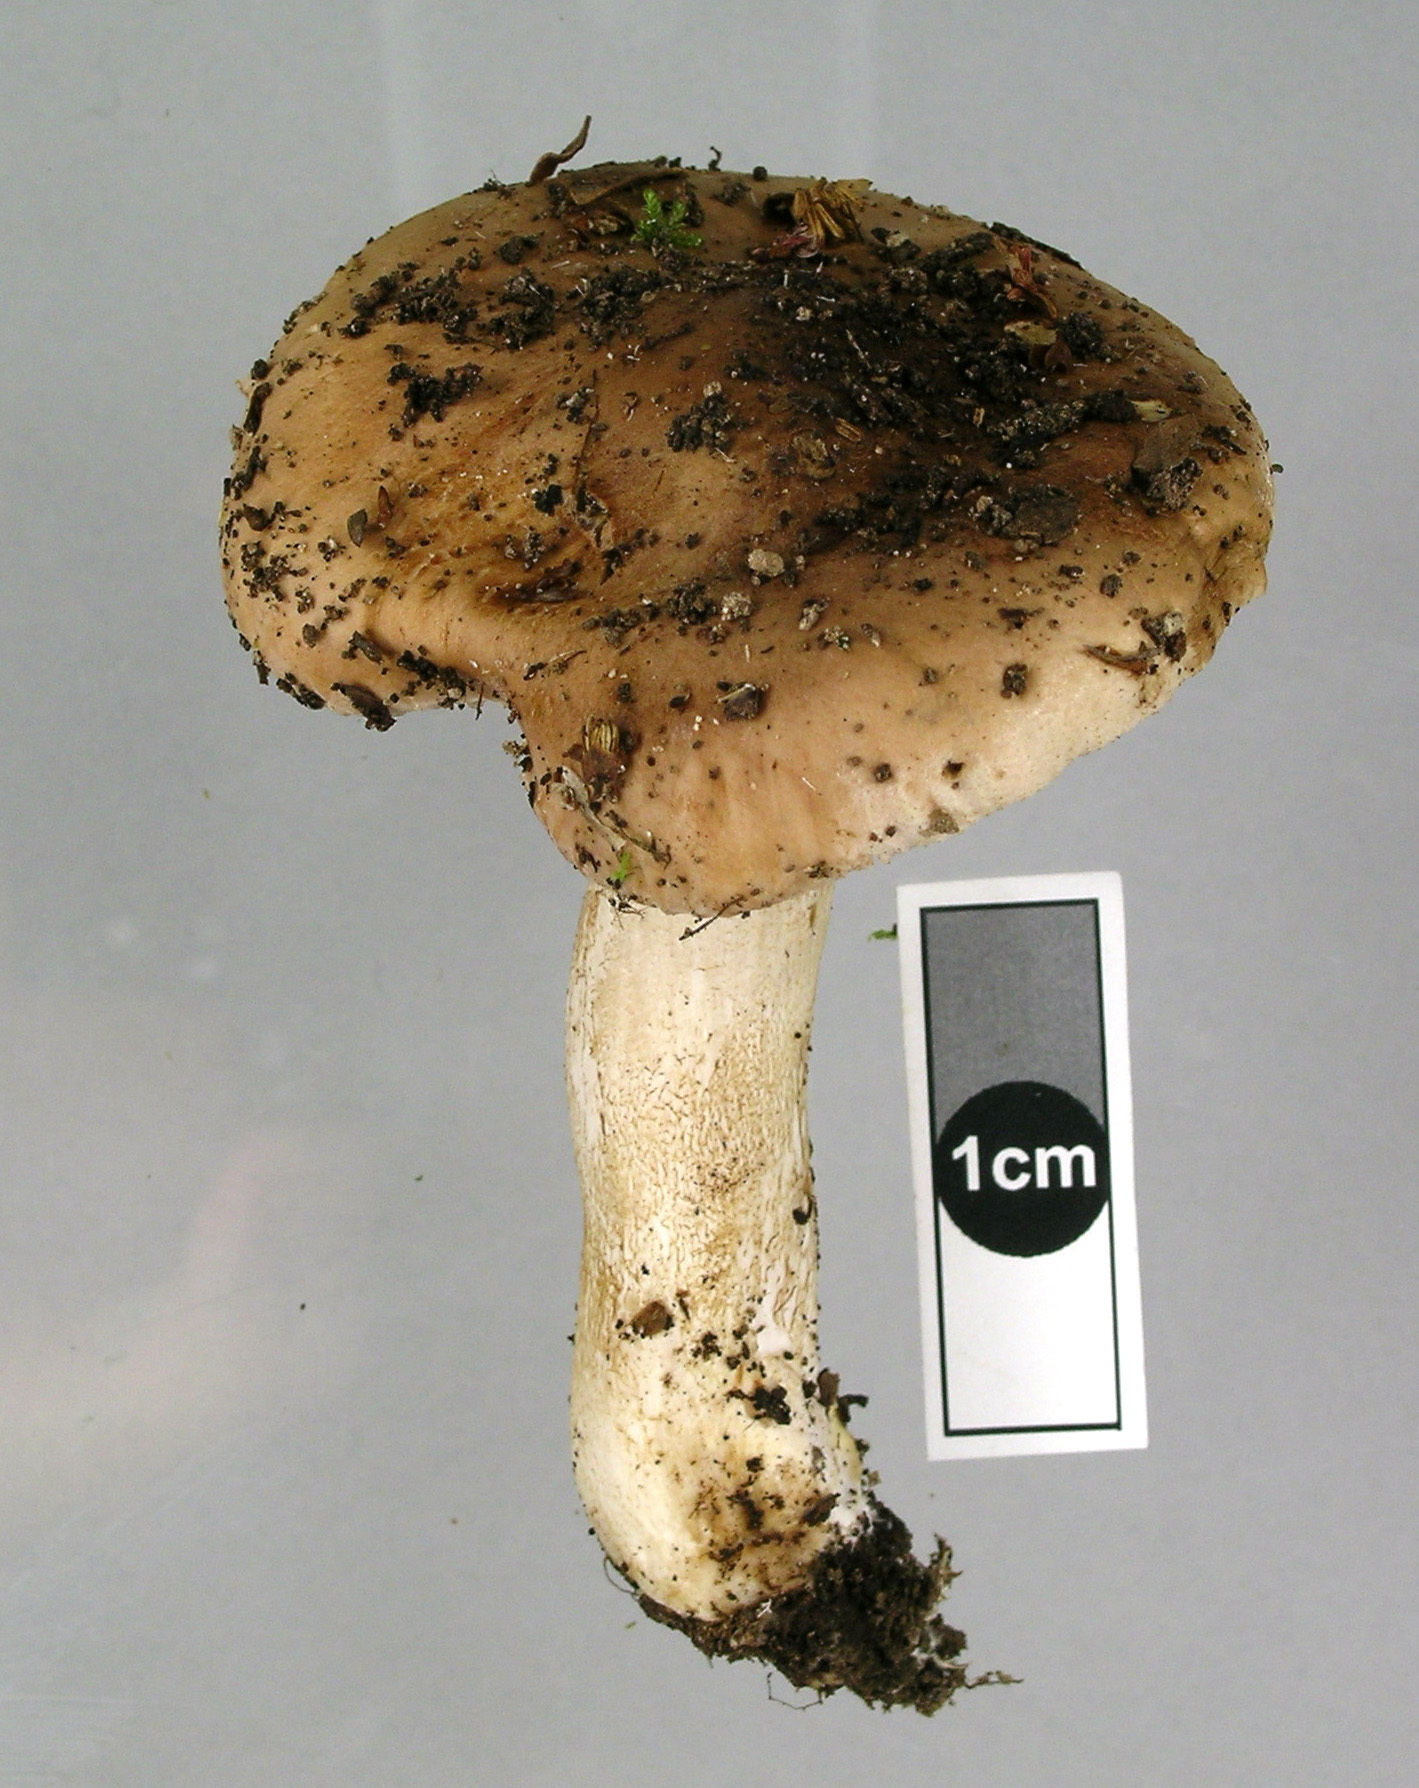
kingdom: Fungi
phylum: Basidiomycota
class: Agaricomycetes
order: Agaricales
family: Hymenogastraceae
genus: Hebeloma
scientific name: Hebeloma mediorufum
